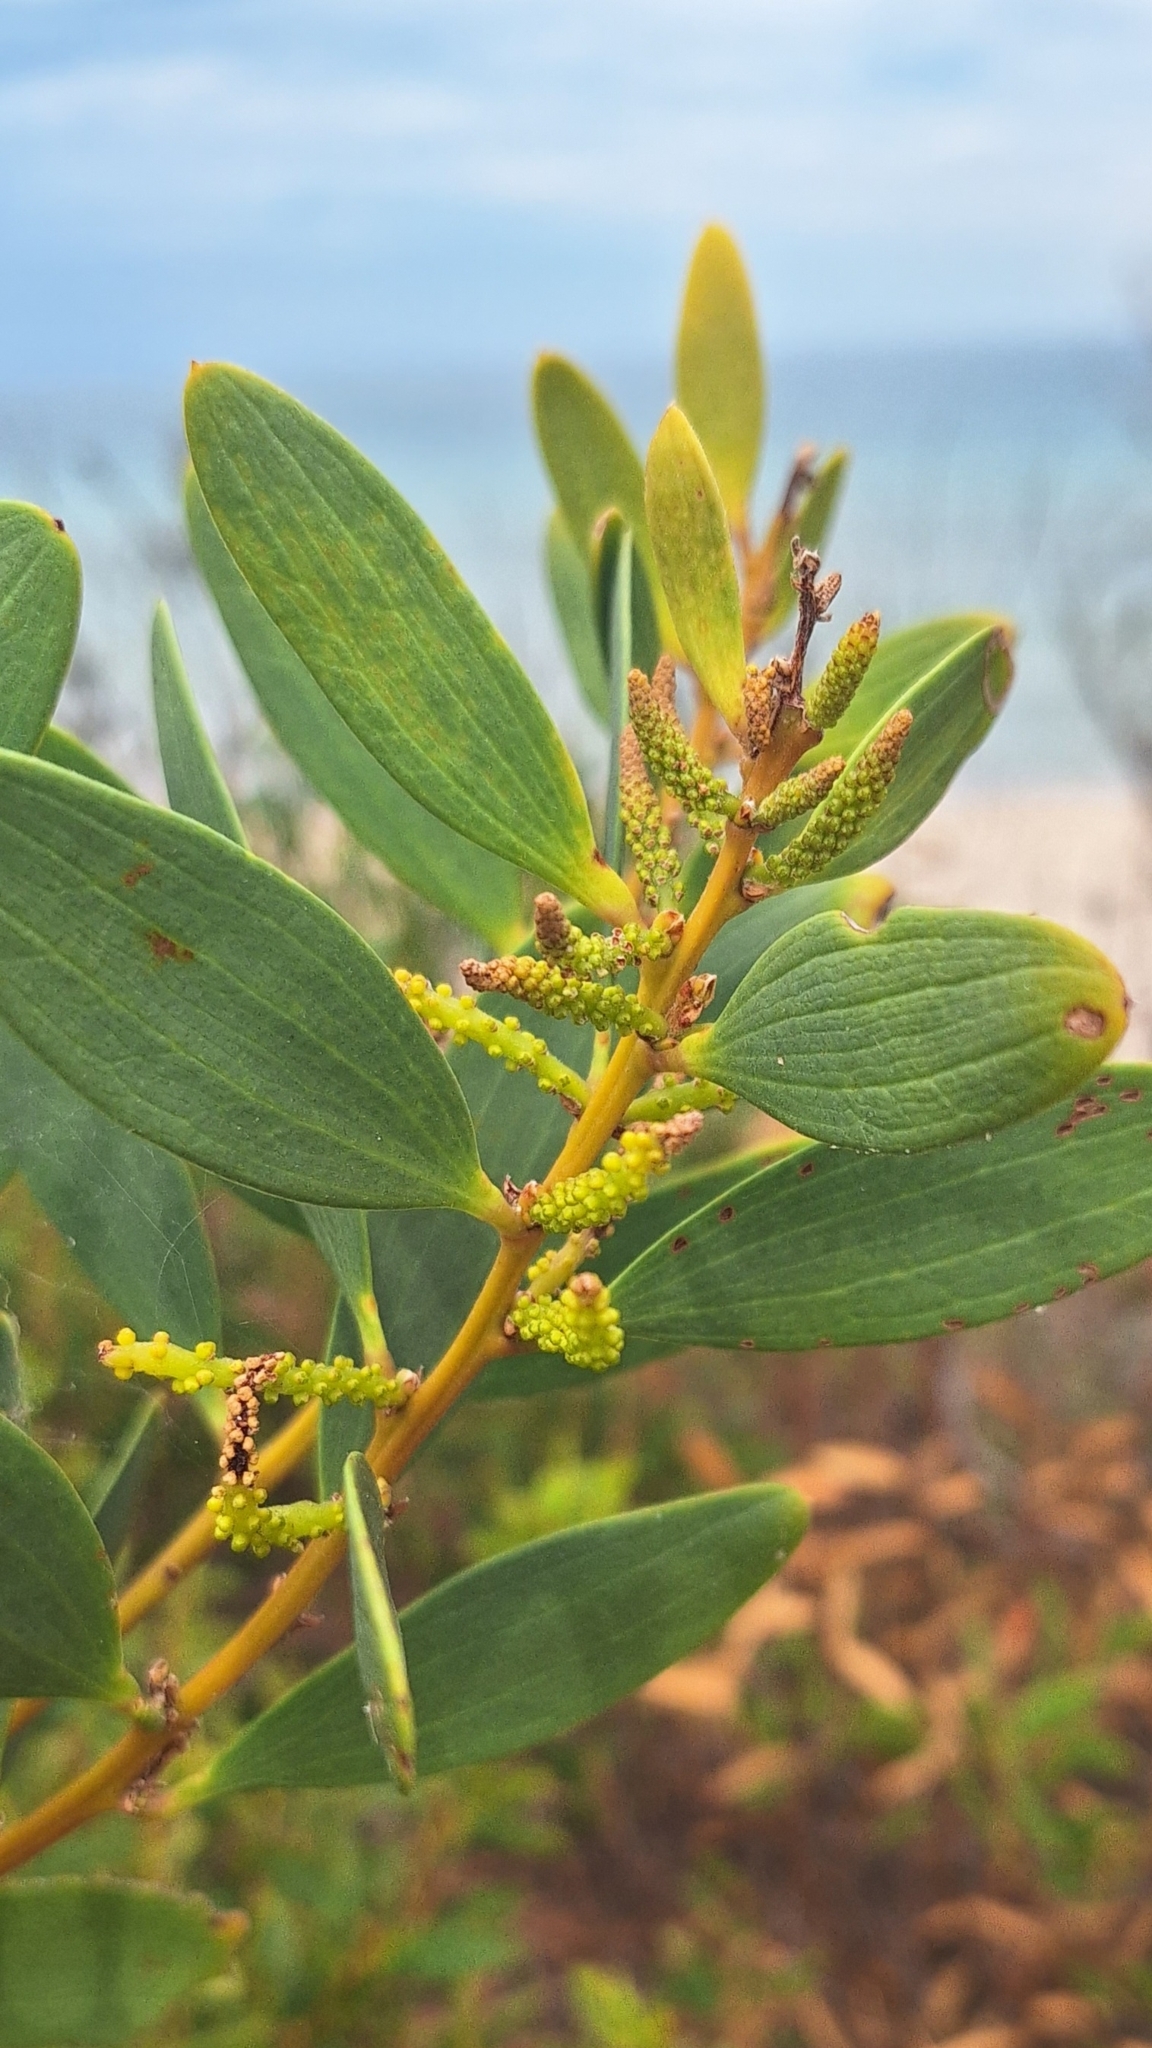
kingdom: Plantae
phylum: Tracheophyta
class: Magnoliopsida
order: Fabales
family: Fabaceae
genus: Acacia
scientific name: Acacia longifolia
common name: Sydney golden wattle
